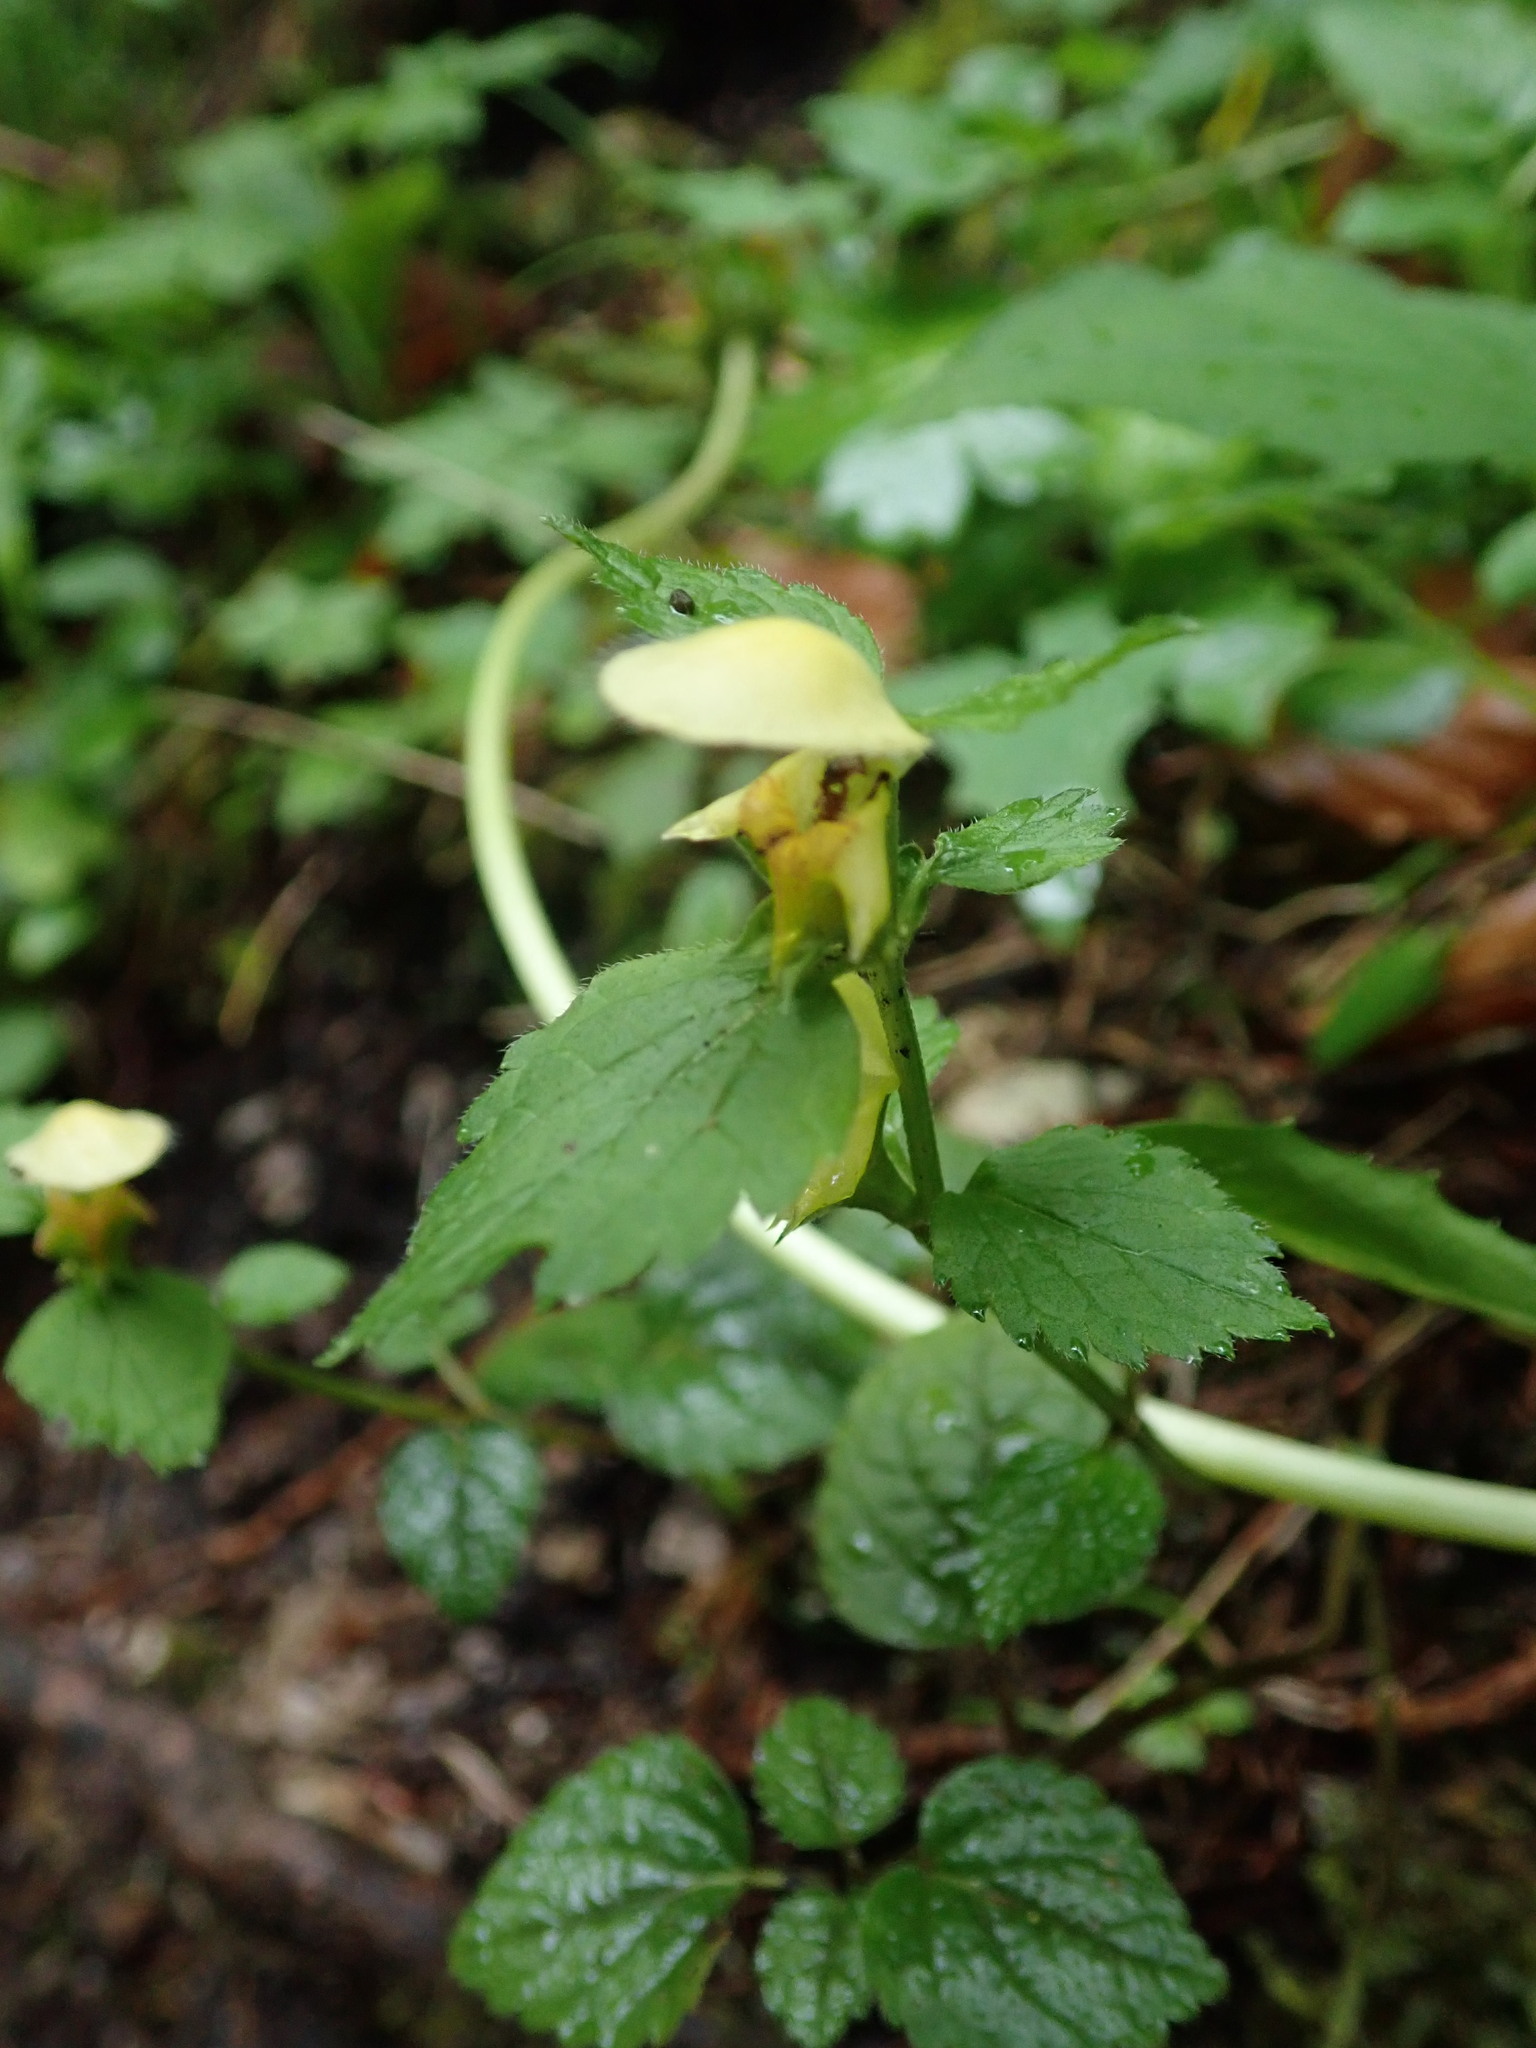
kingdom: Plantae
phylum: Tracheophyta
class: Magnoliopsida
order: Lamiales
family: Lamiaceae
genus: Lamium
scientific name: Lamium galeobdolon
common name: Yellow archangel
